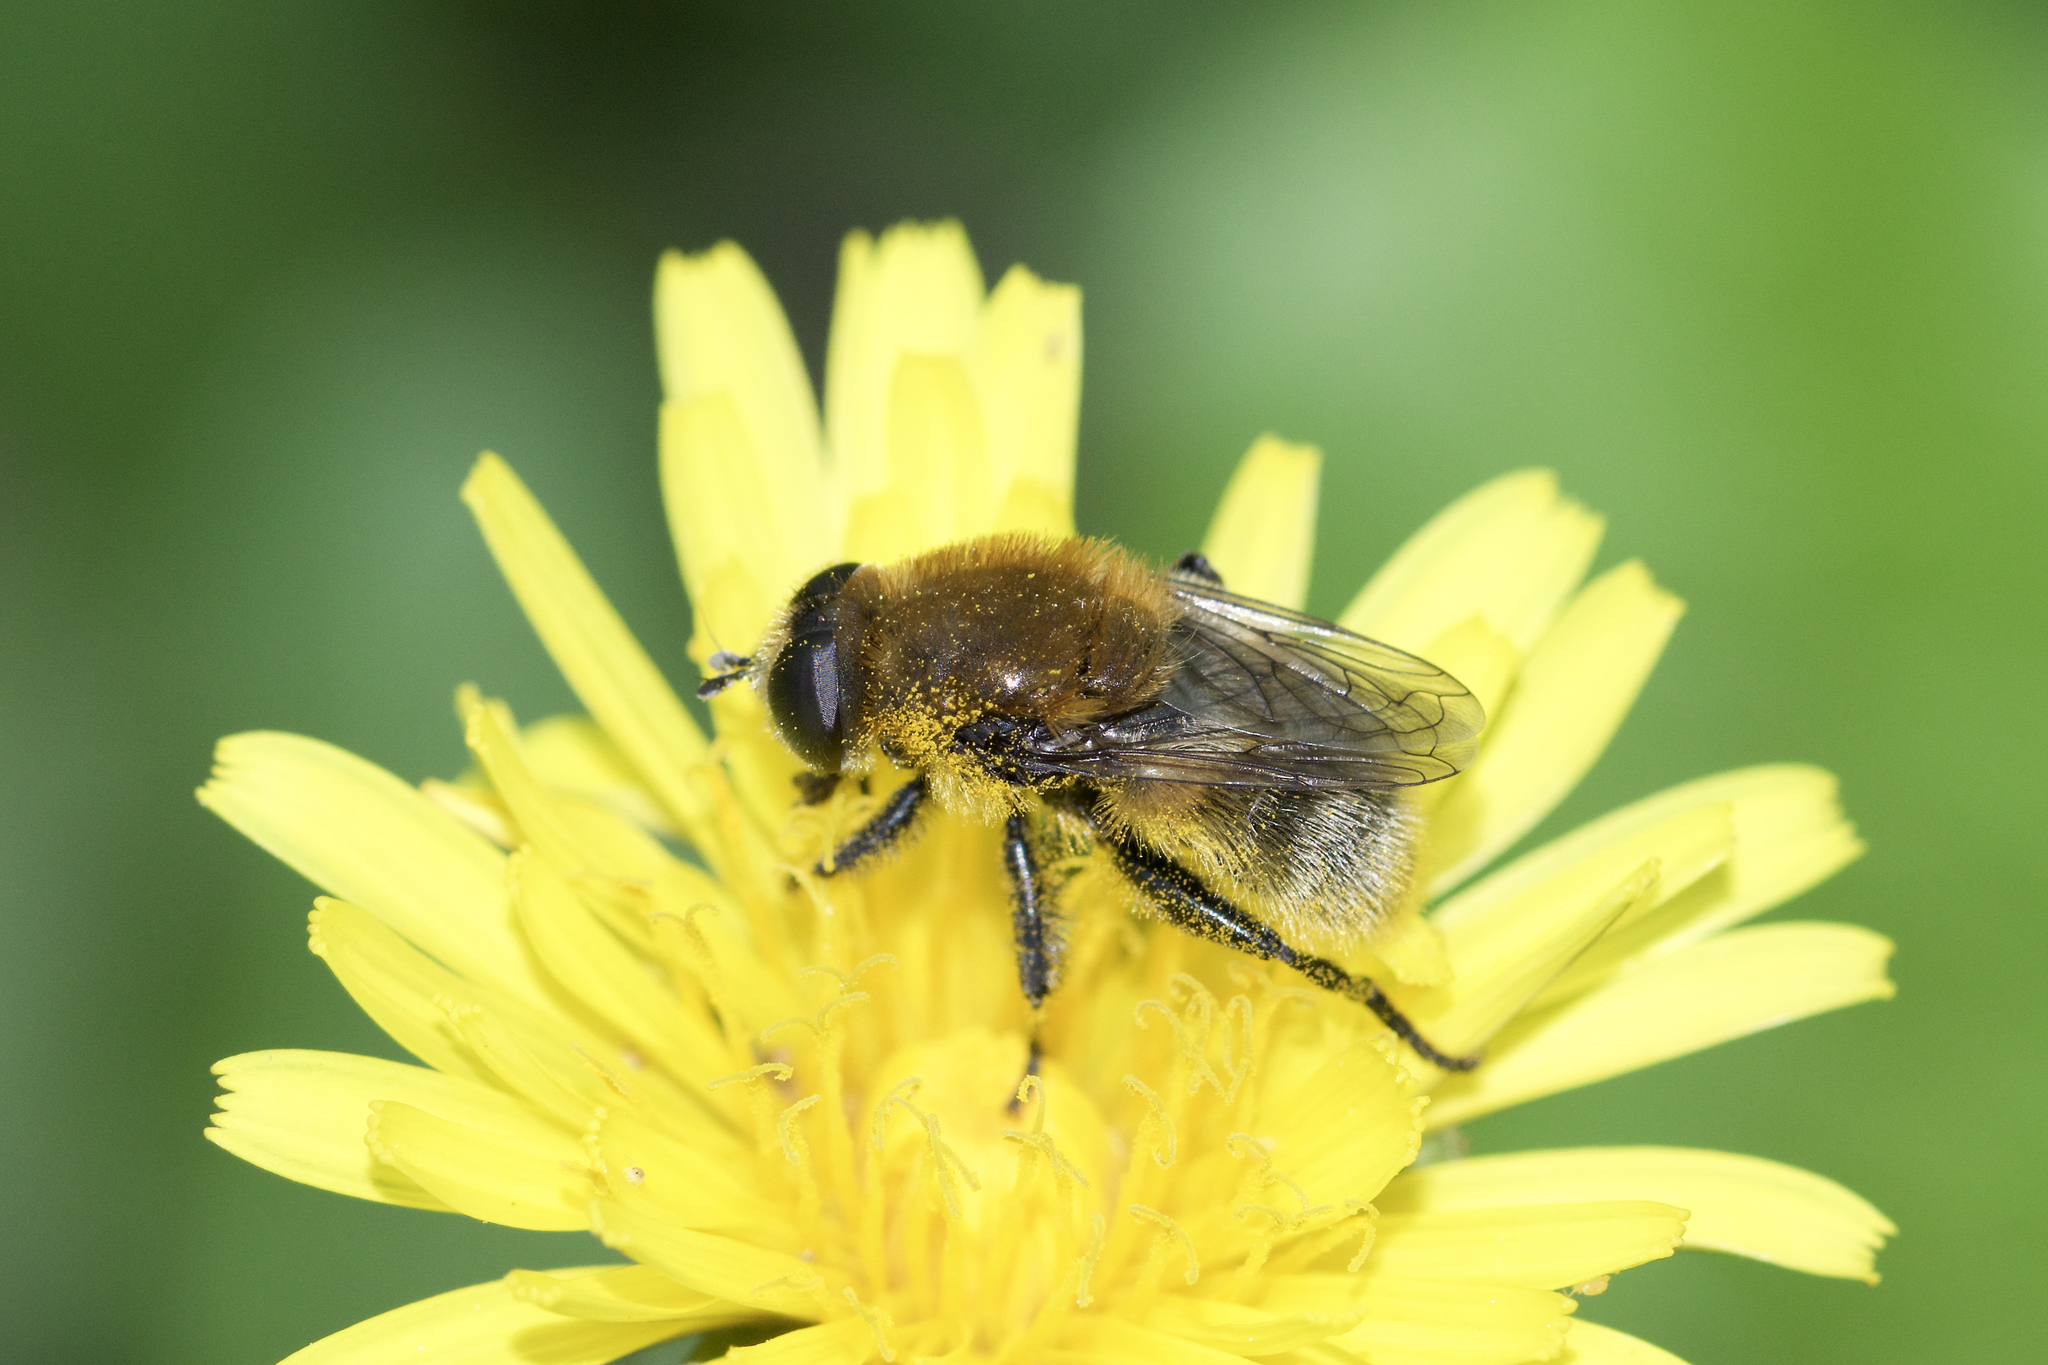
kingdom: Animalia
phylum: Arthropoda
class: Insecta
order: Diptera
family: Syrphidae
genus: Merodon
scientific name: Merodon equestris
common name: Greater bulb-fly
